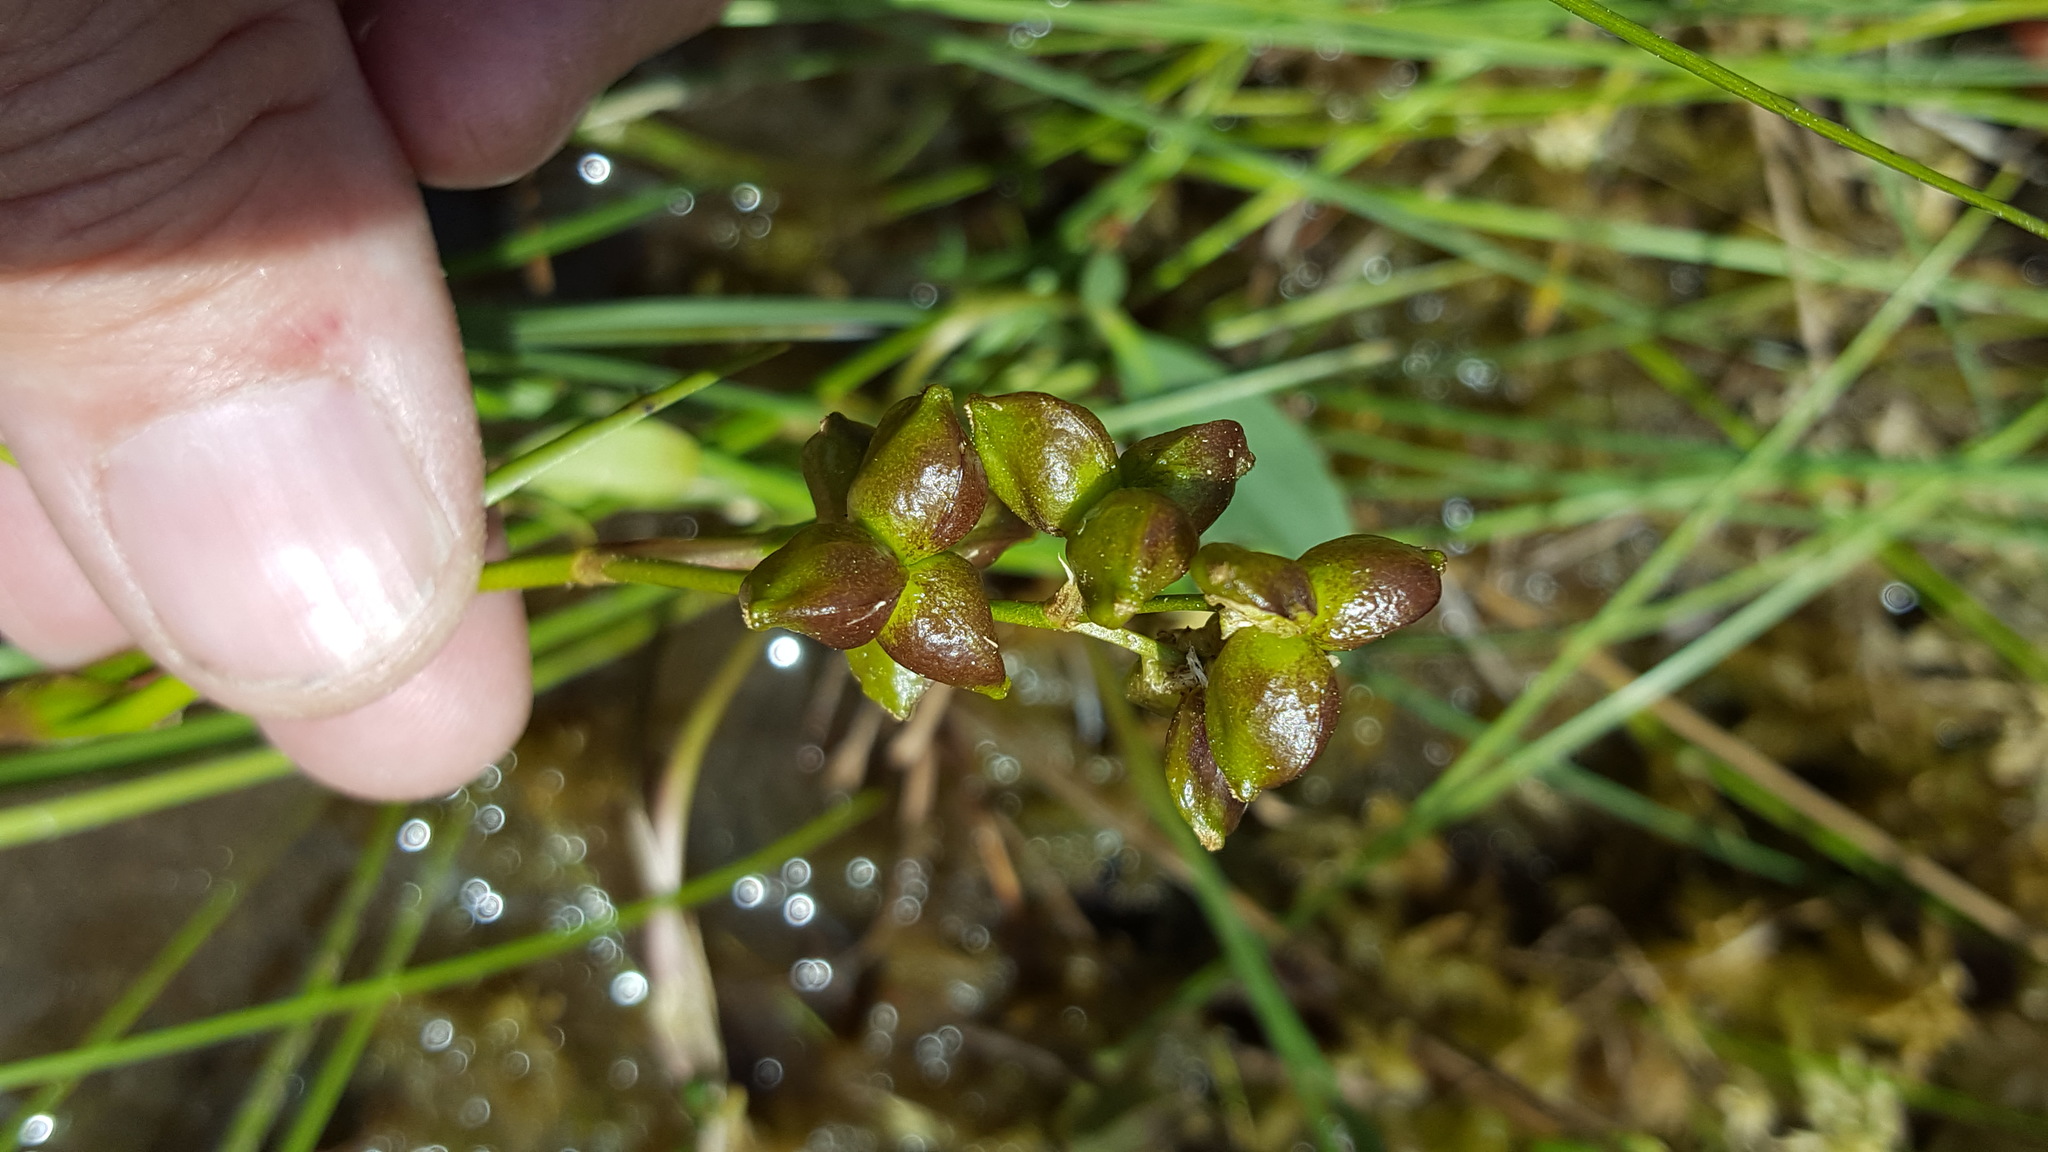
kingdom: Plantae
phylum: Tracheophyta
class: Liliopsida
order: Alismatales
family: Scheuchzeriaceae
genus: Scheuchzeria
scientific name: Scheuchzeria palustris
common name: Rannoch-rush
